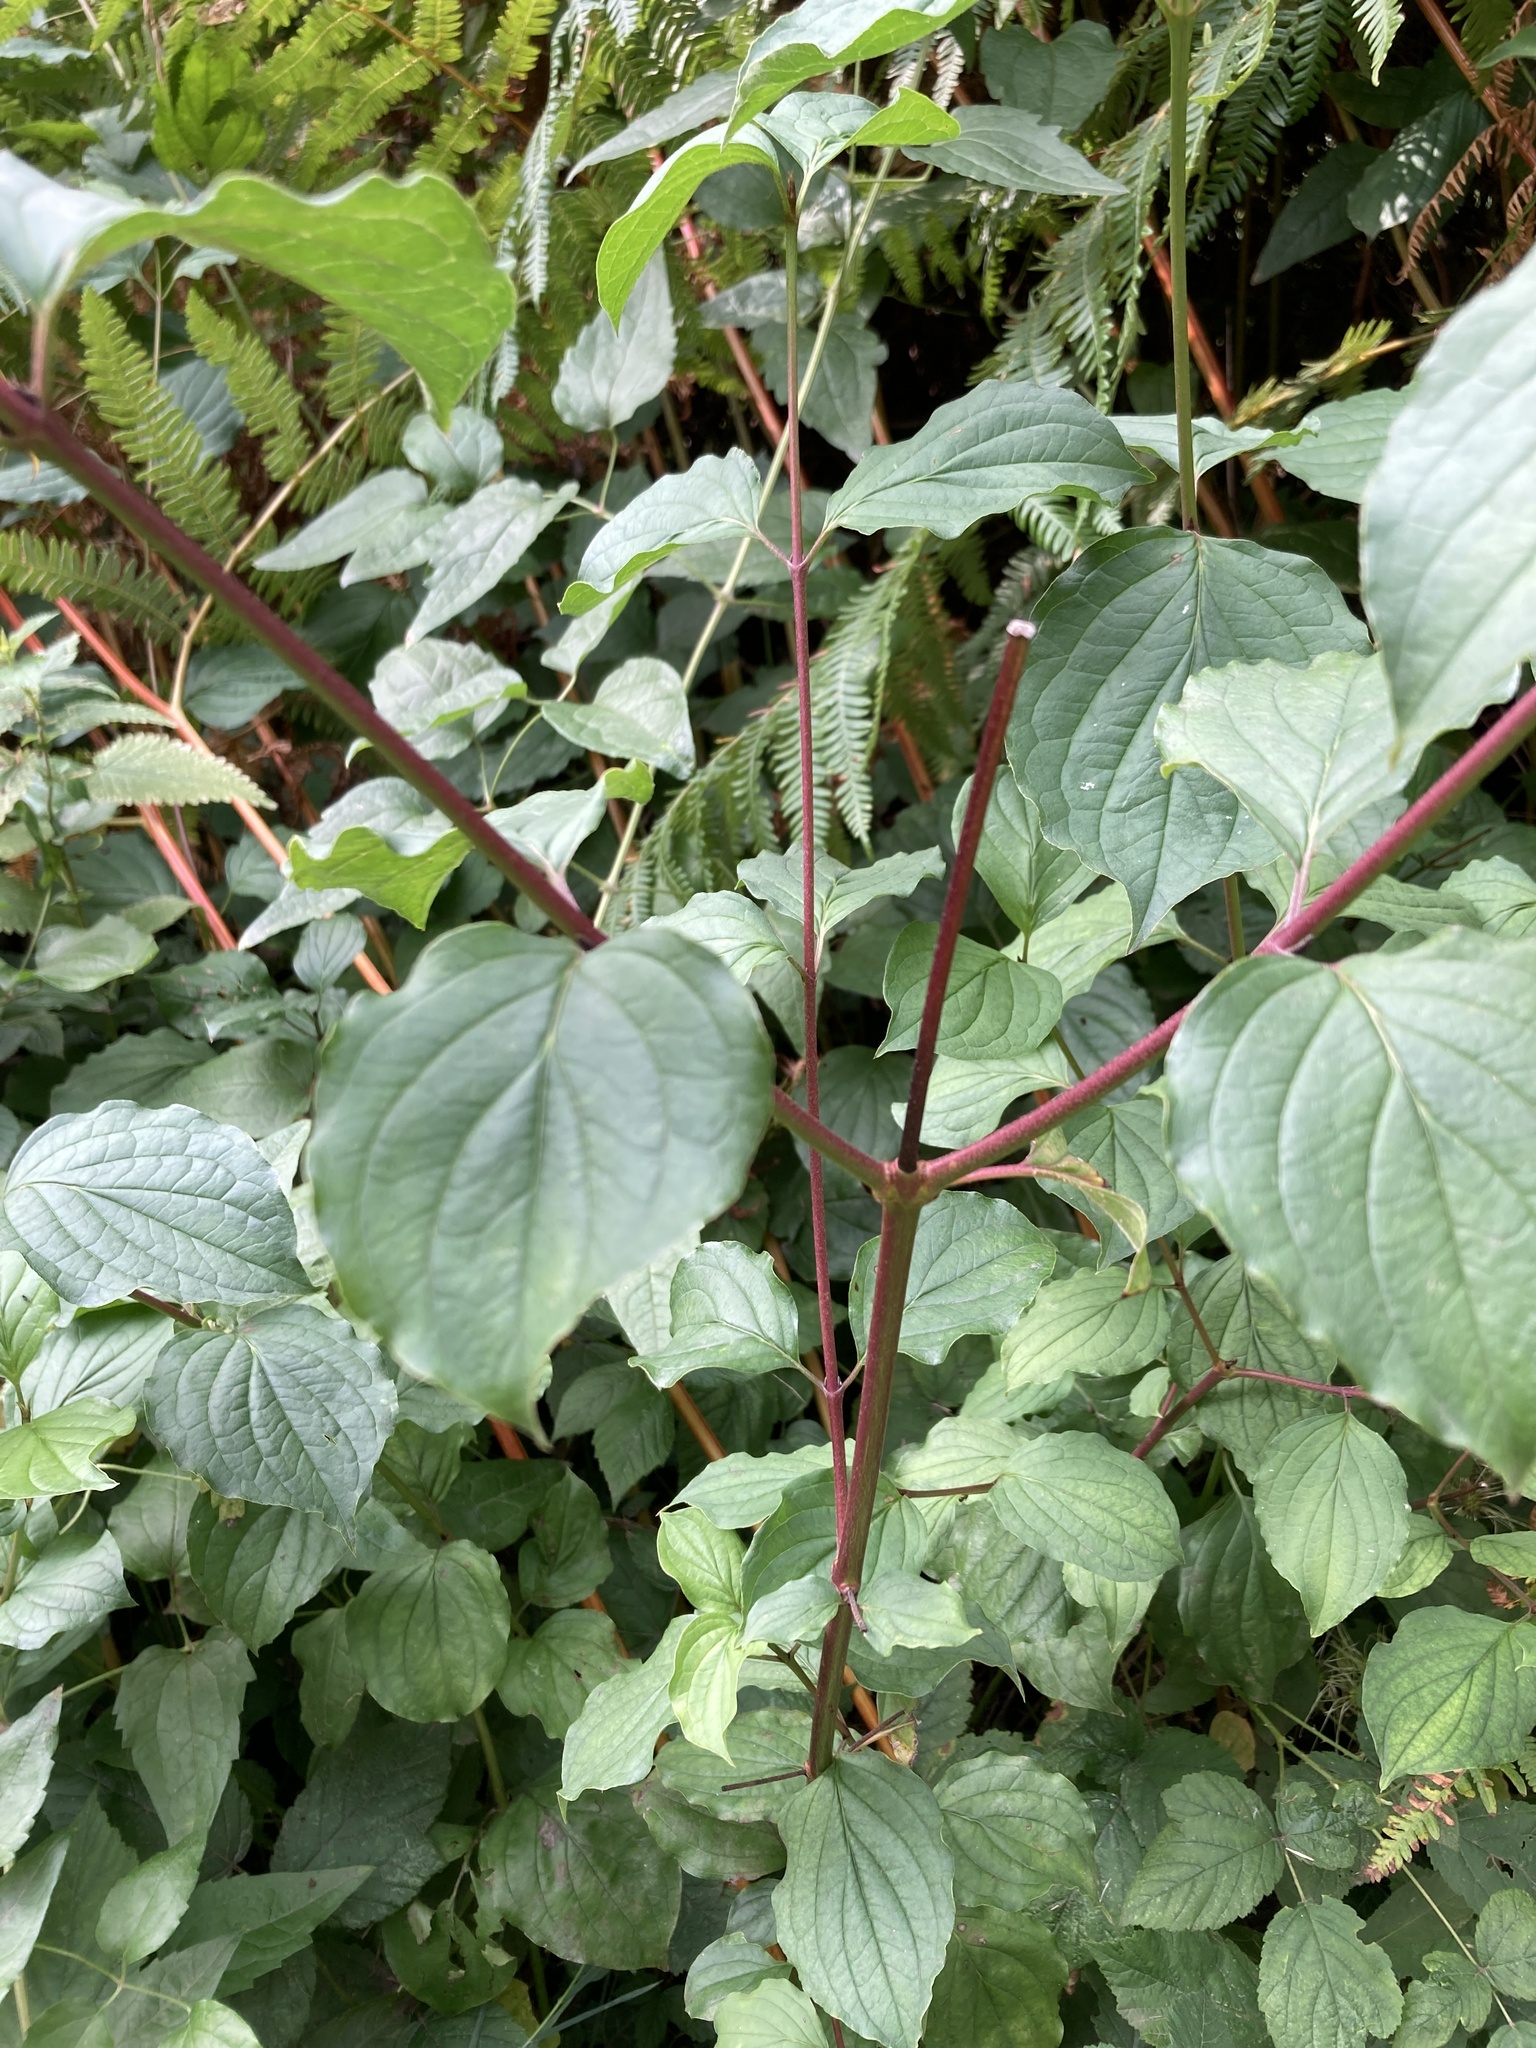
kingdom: Plantae
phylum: Tracheophyta
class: Magnoliopsida
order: Cornales
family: Cornaceae
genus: Cornus
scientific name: Cornus sanguinea
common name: Dogwood
